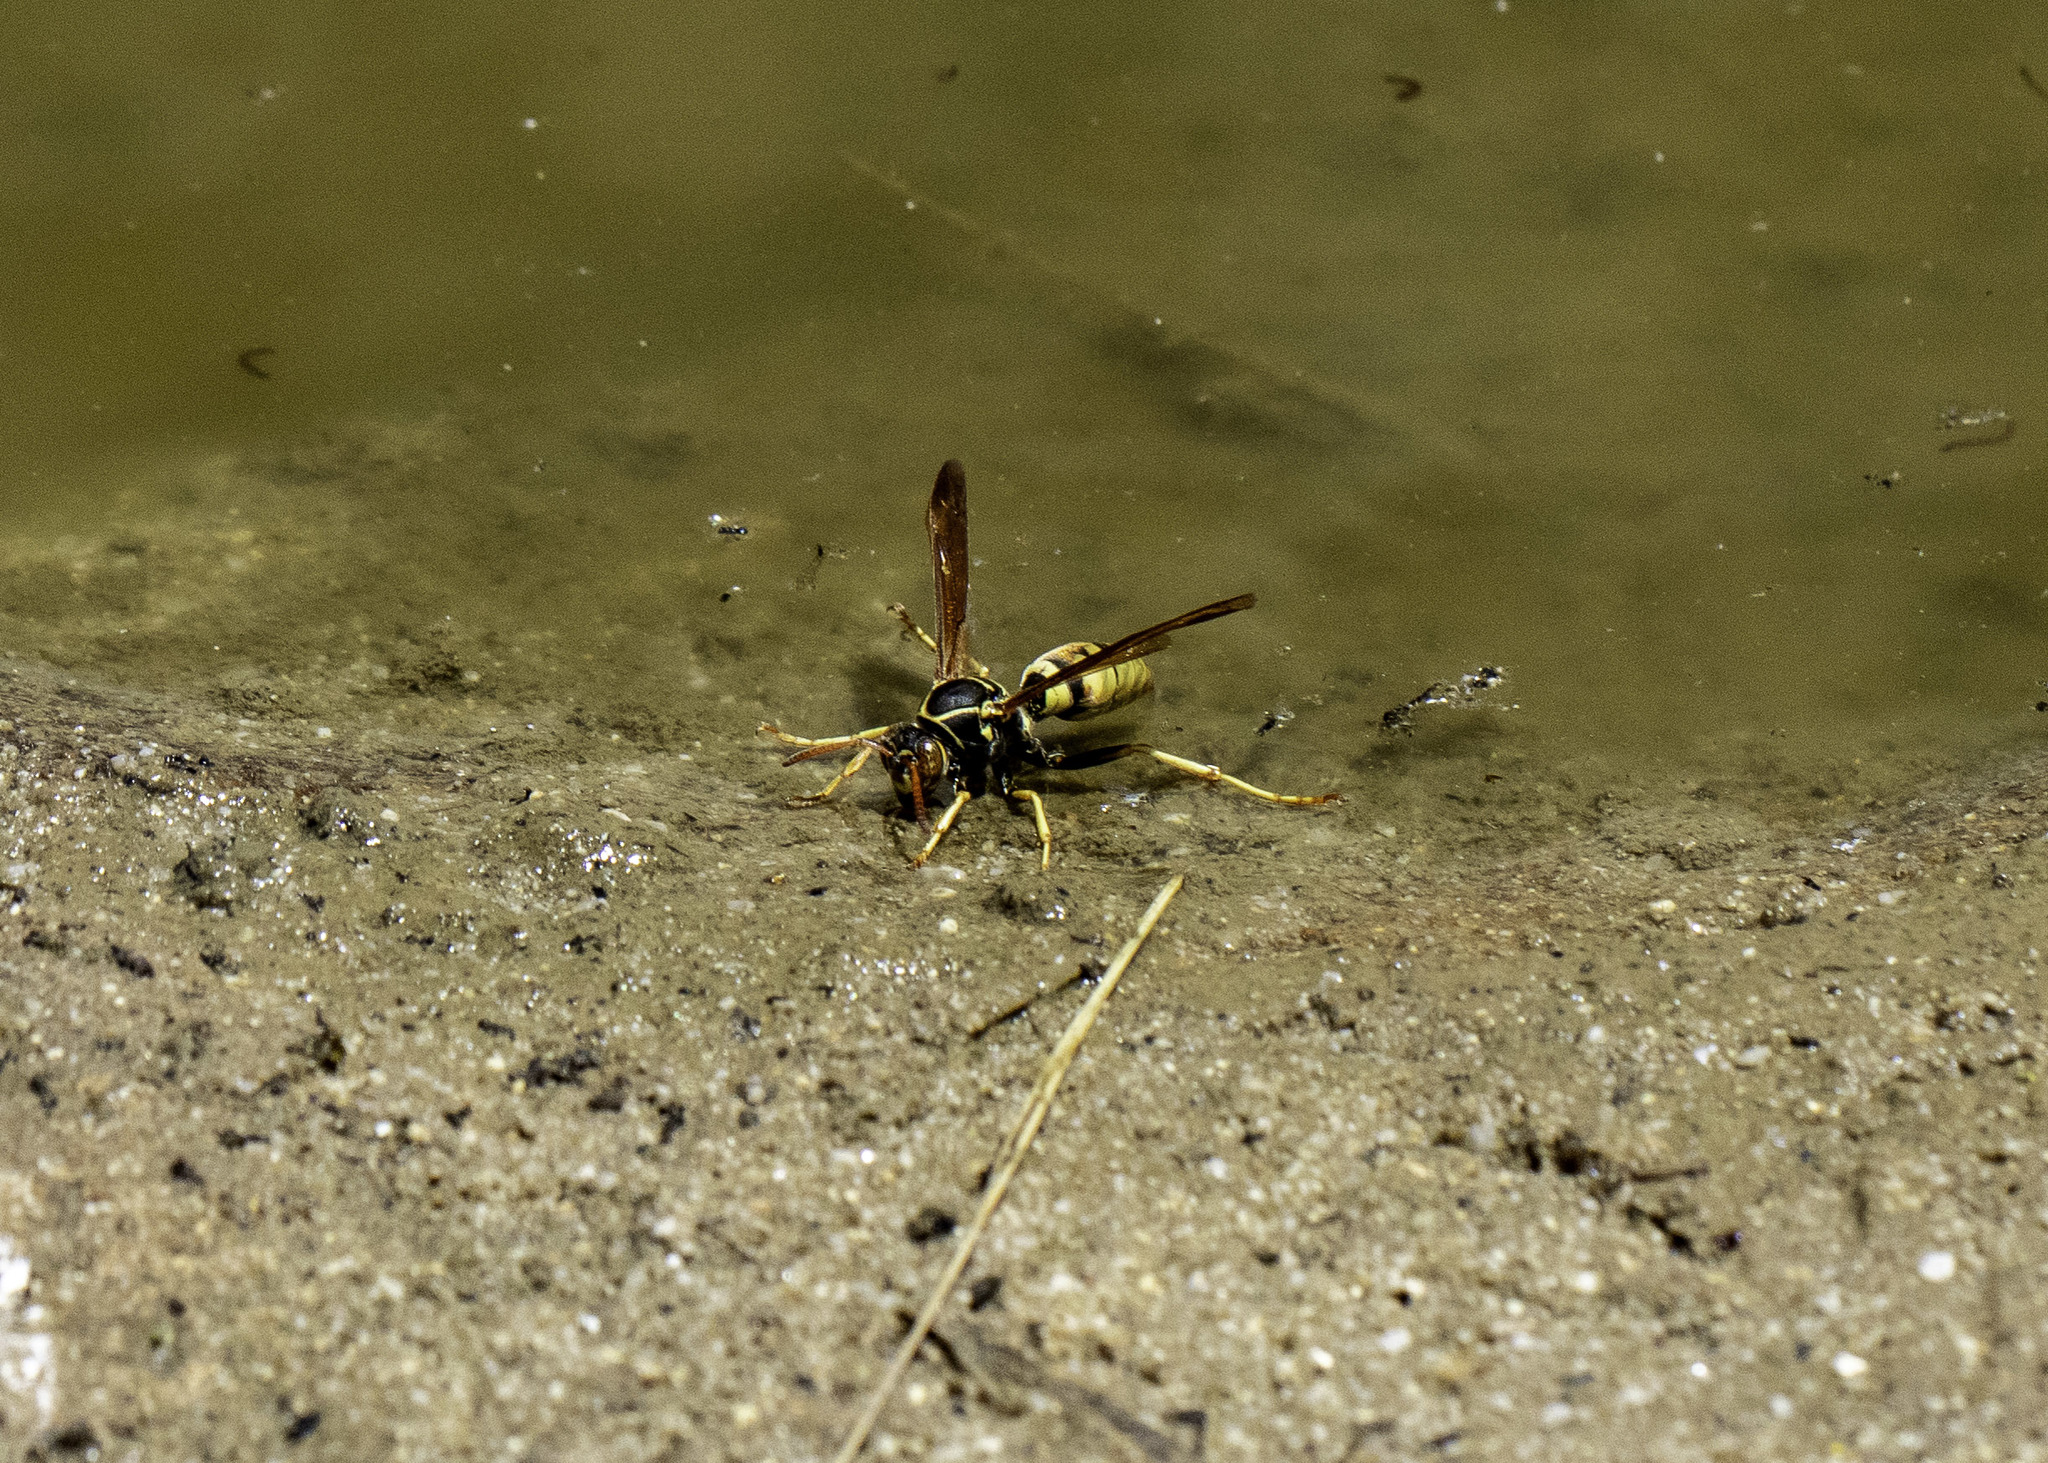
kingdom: Animalia
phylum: Arthropoda
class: Insecta
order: Hymenoptera
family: Eumenidae
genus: Polistes
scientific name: Polistes aurifer
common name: Paper wasp
